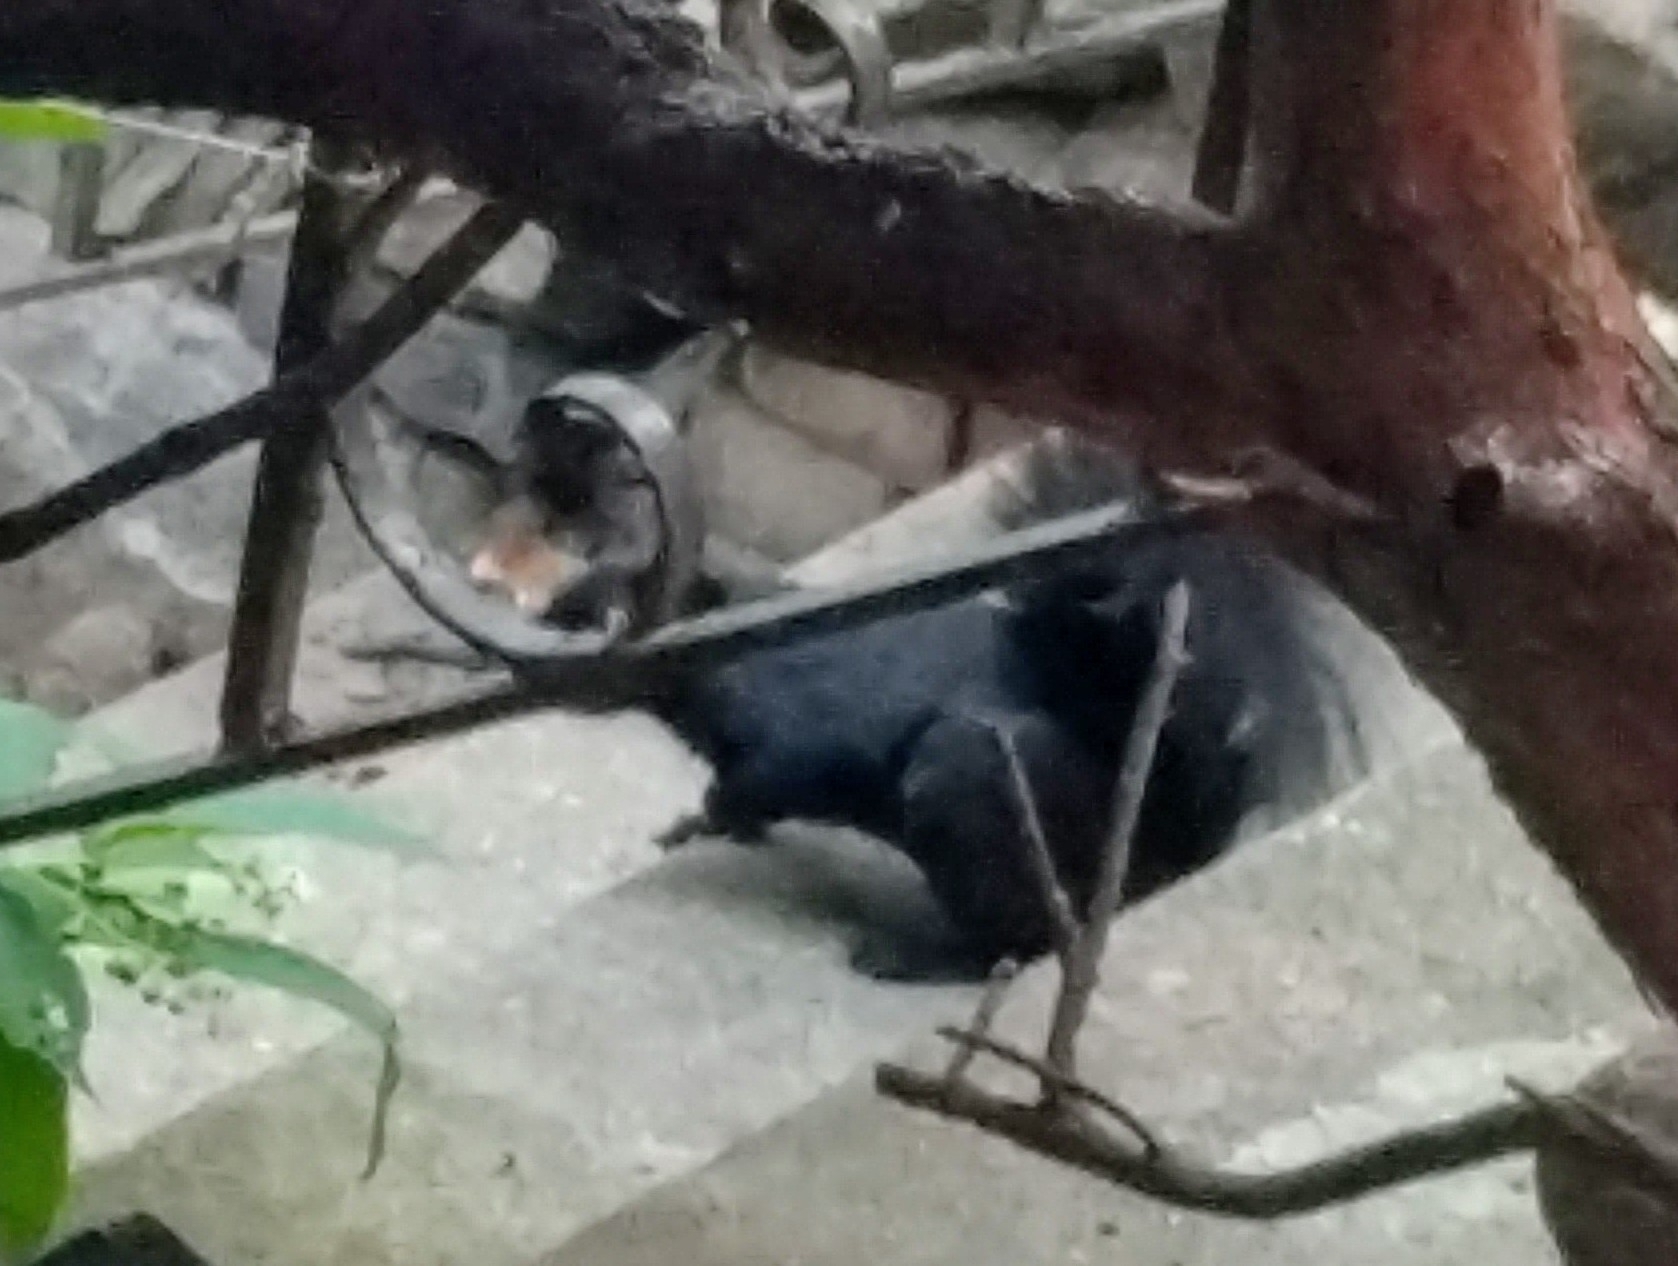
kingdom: Animalia
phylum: Chordata
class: Mammalia
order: Rodentia
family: Sciuridae
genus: Sciurus
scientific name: Sciurus carolinensis
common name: Eastern gray squirrel
